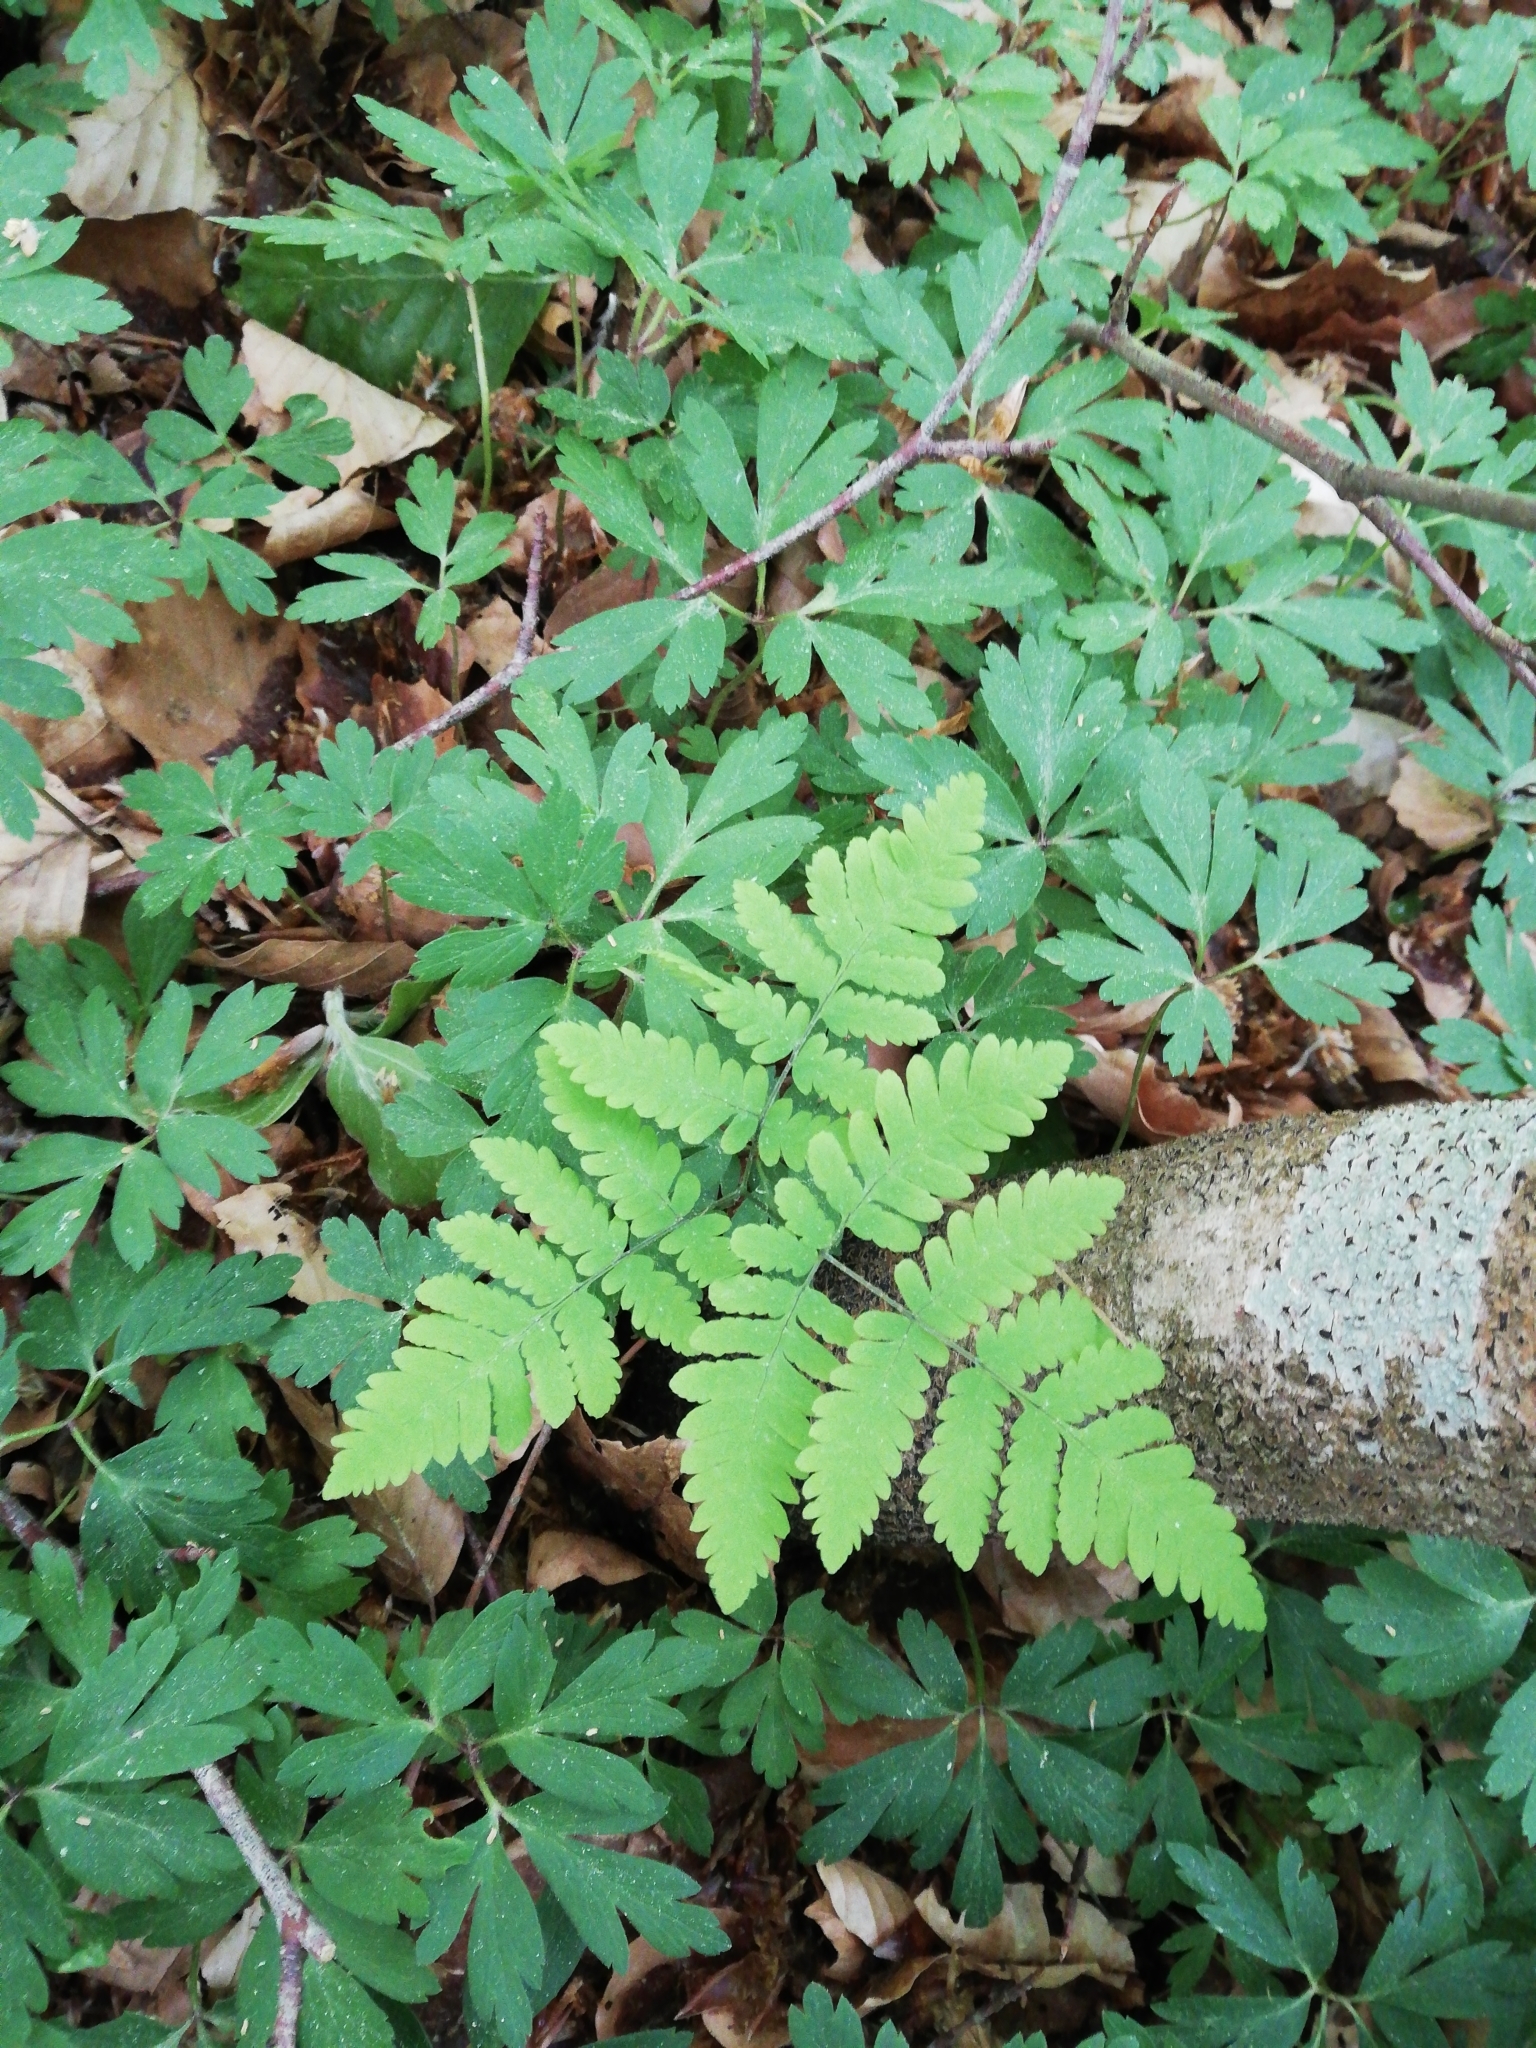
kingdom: Plantae
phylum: Tracheophyta
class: Polypodiopsida
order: Polypodiales
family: Cystopteridaceae
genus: Gymnocarpium
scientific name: Gymnocarpium dryopteris
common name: Oak fern
